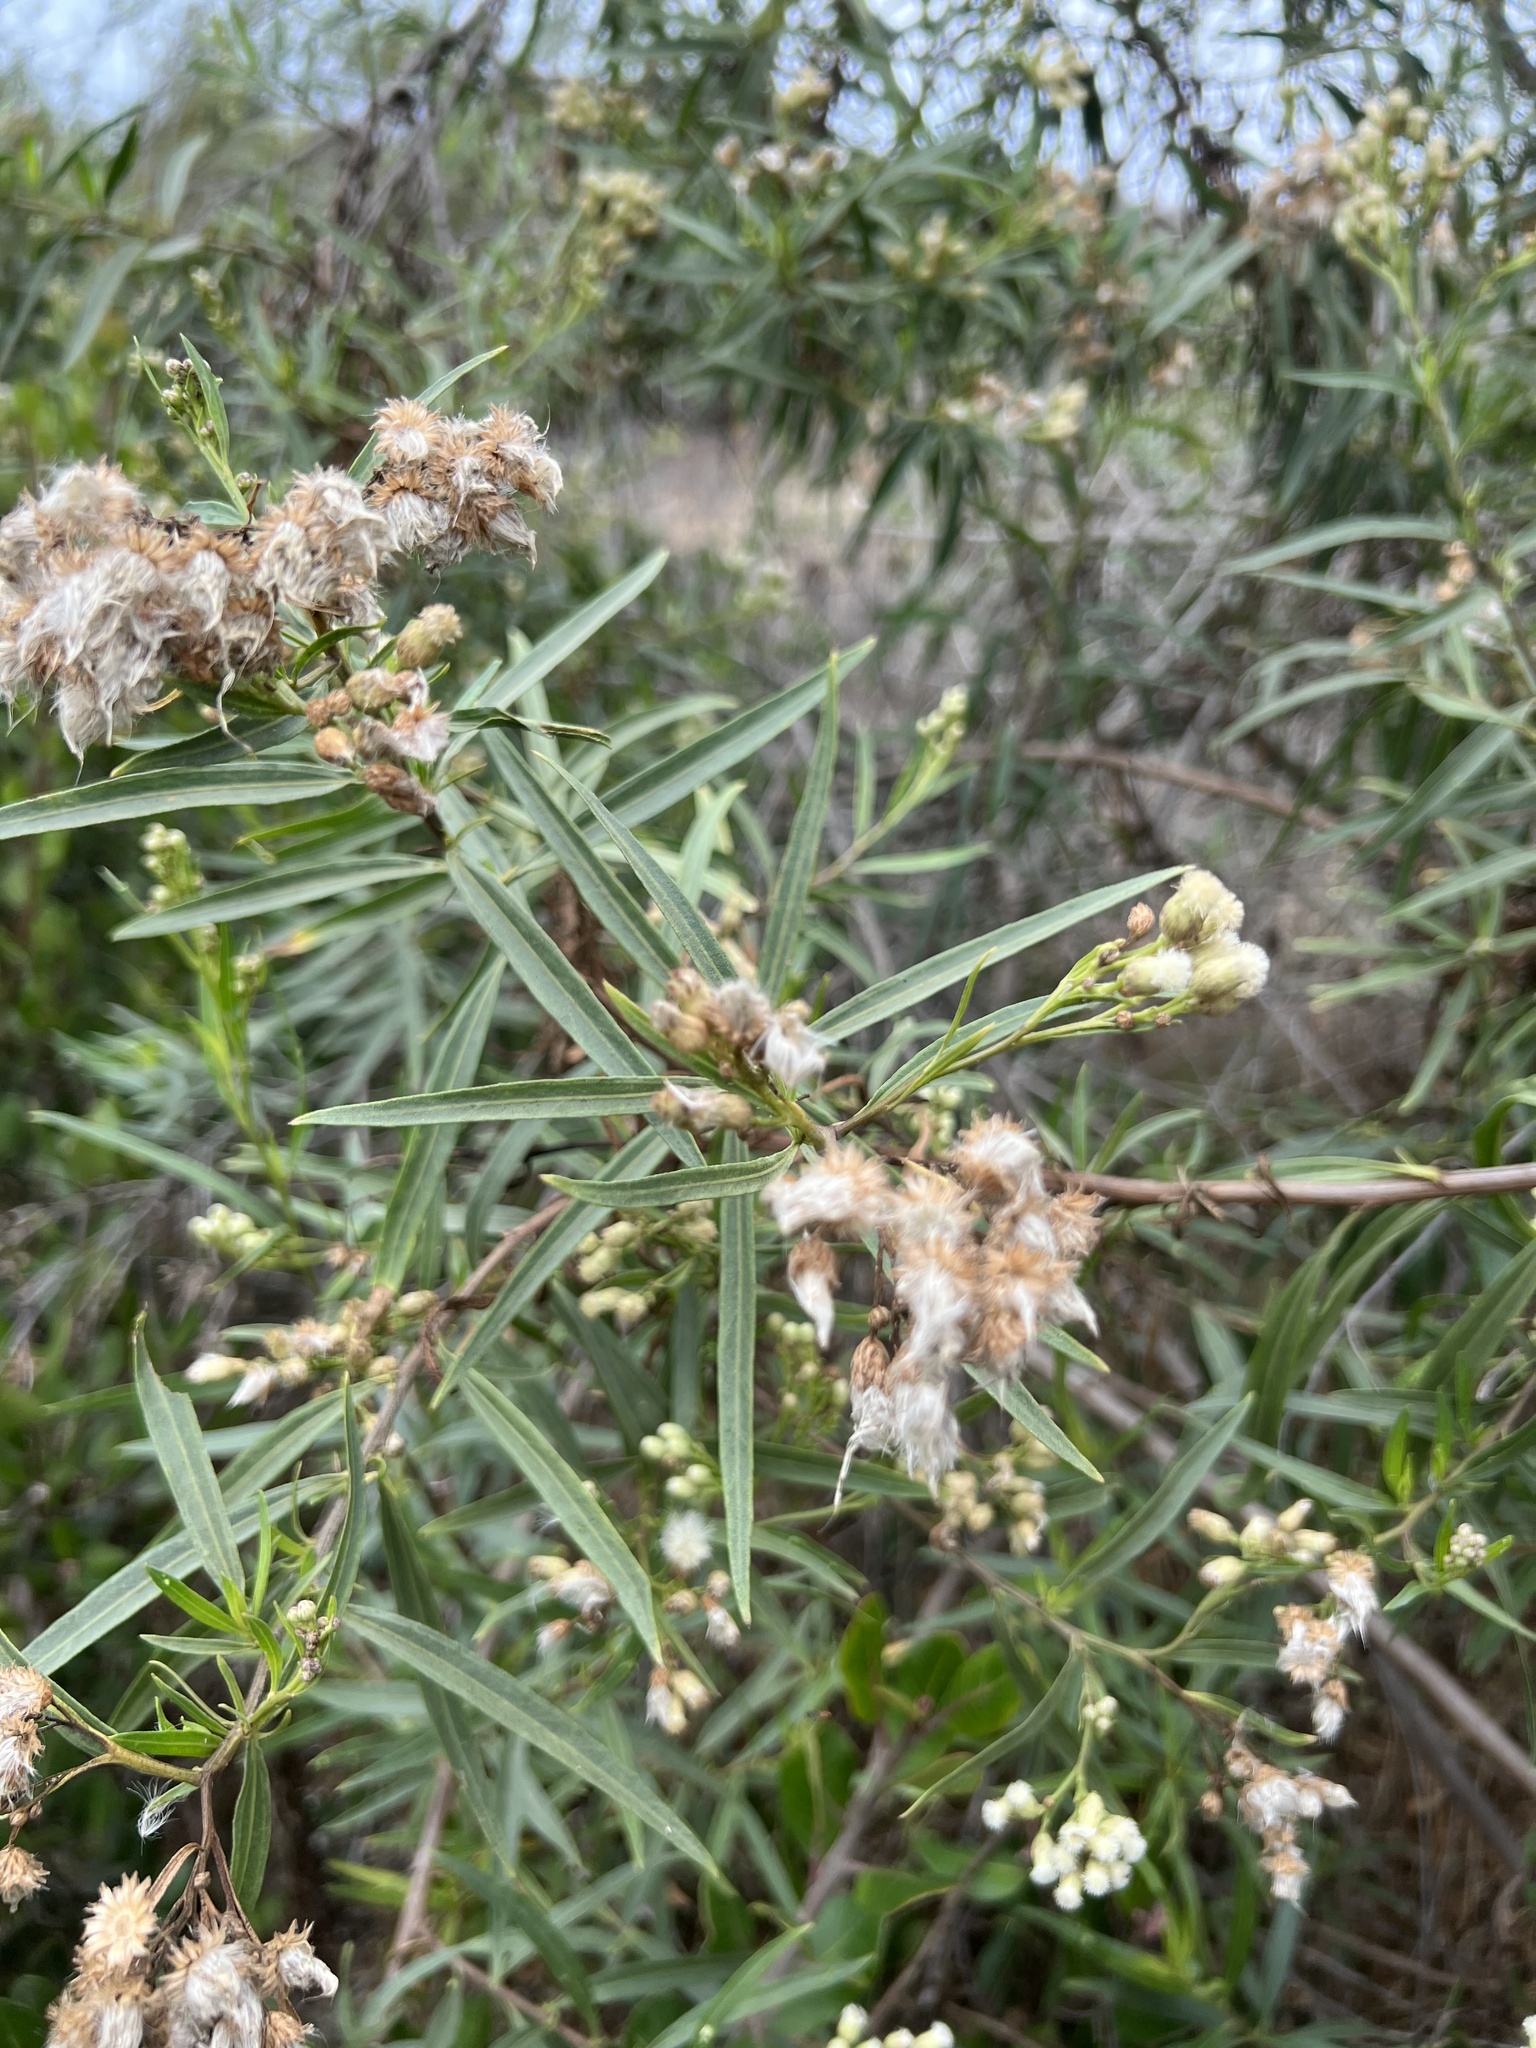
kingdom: Plantae
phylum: Tracheophyta
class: Magnoliopsida
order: Asterales
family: Asteraceae
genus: Baccharis
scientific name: Baccharis salicifolia
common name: Sticky baccharis
